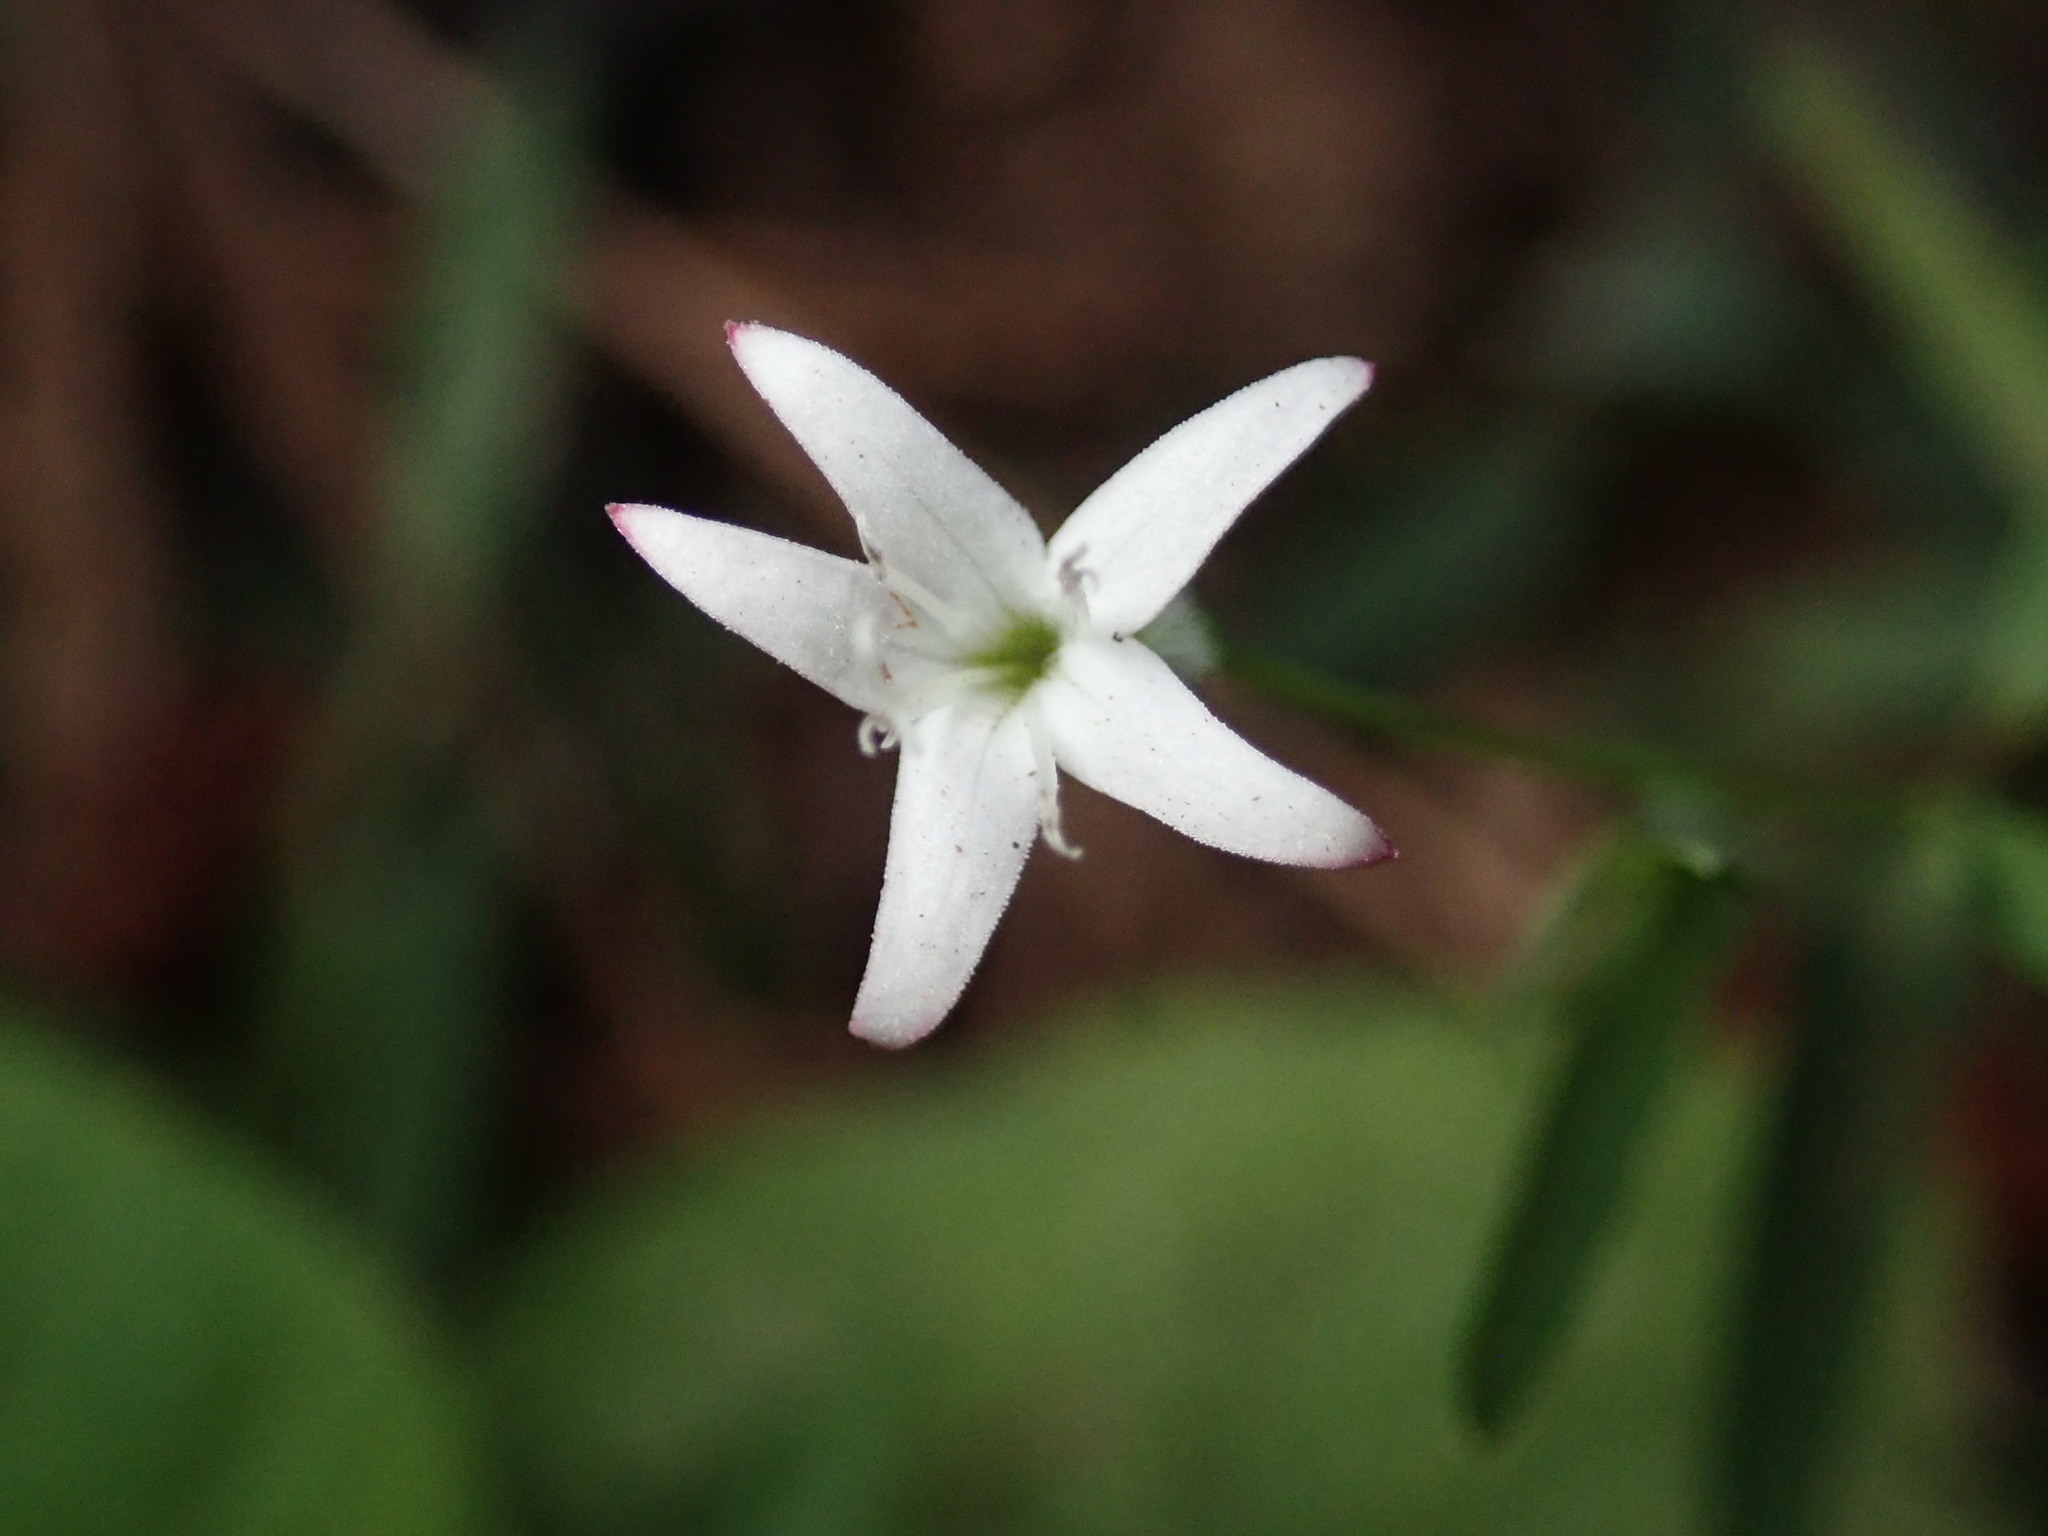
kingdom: Plantae
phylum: Tracheophyta
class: Magnoliopsida
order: Gentianales
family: Rubiaceae
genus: Kelloggia
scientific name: Kelloggia galioides
